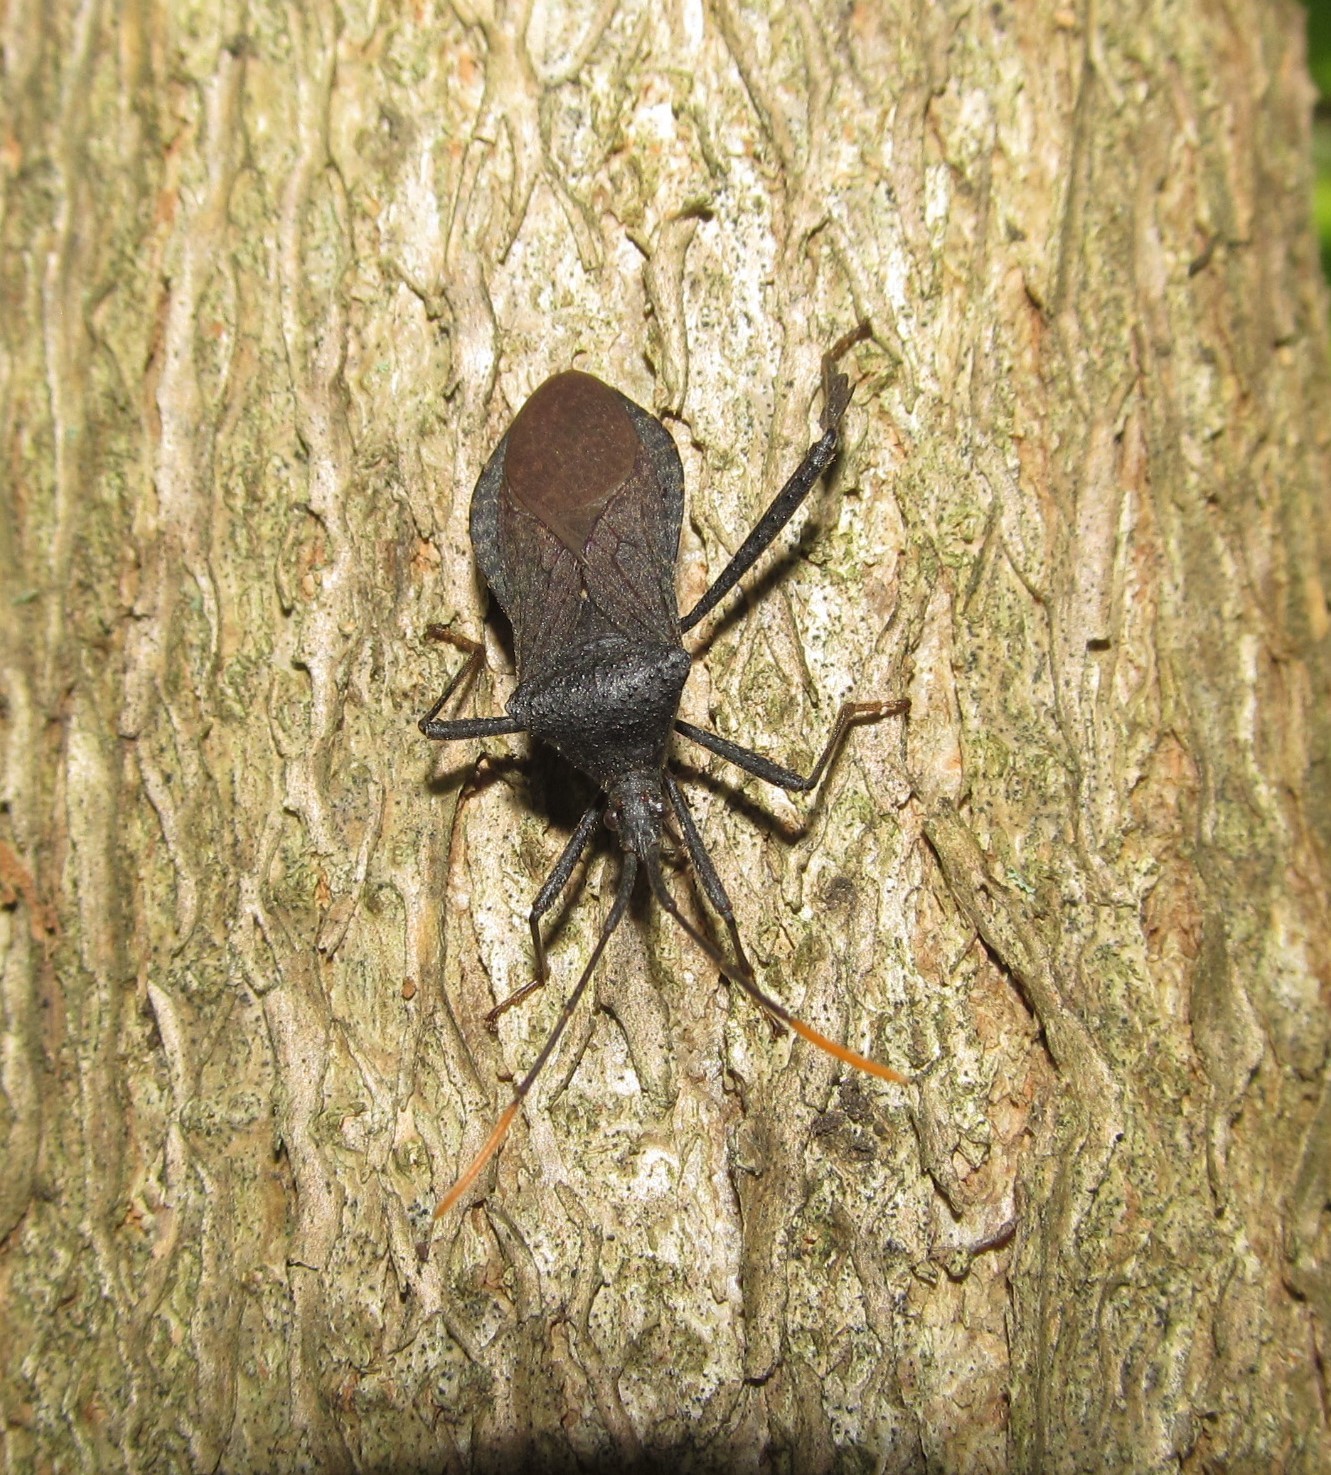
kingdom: Animalia
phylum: Arthropoda
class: Insecta
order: Hemiptera
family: Coreidae
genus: Acanthocephala
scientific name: Acanthocephala terminalis
